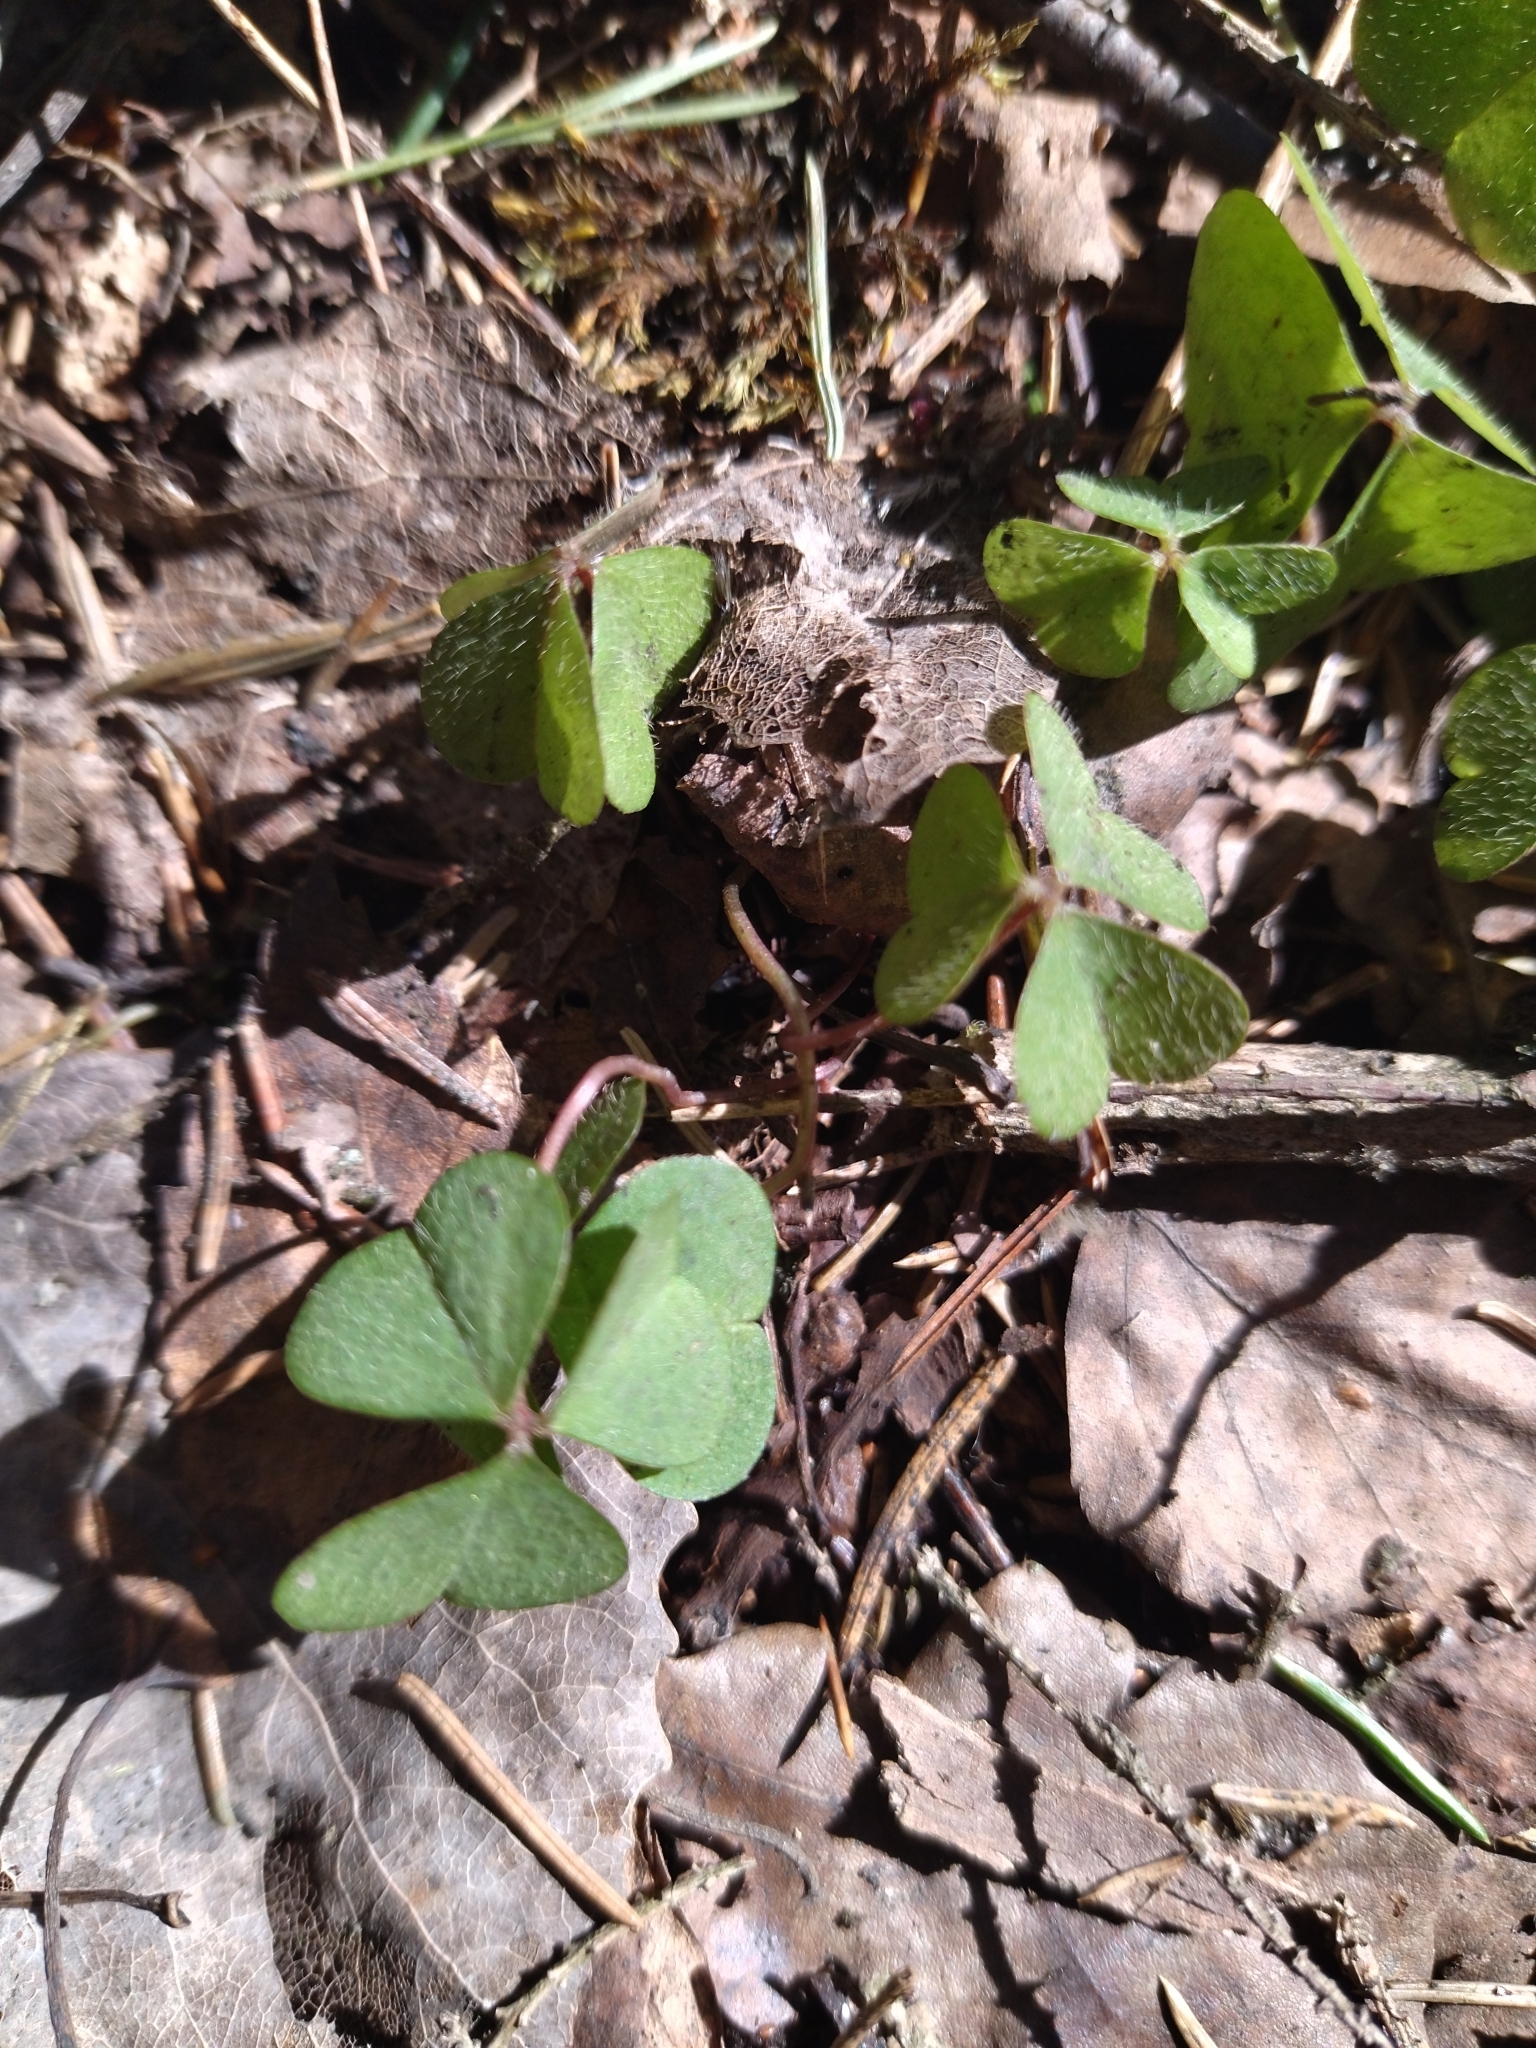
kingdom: Plantae
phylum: Tracheophyta
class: Magnoliopsida
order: Oxalidales
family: Oxalidaceae
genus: Oxalis
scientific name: Oxalis acetosella
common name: Wood-sorrel
